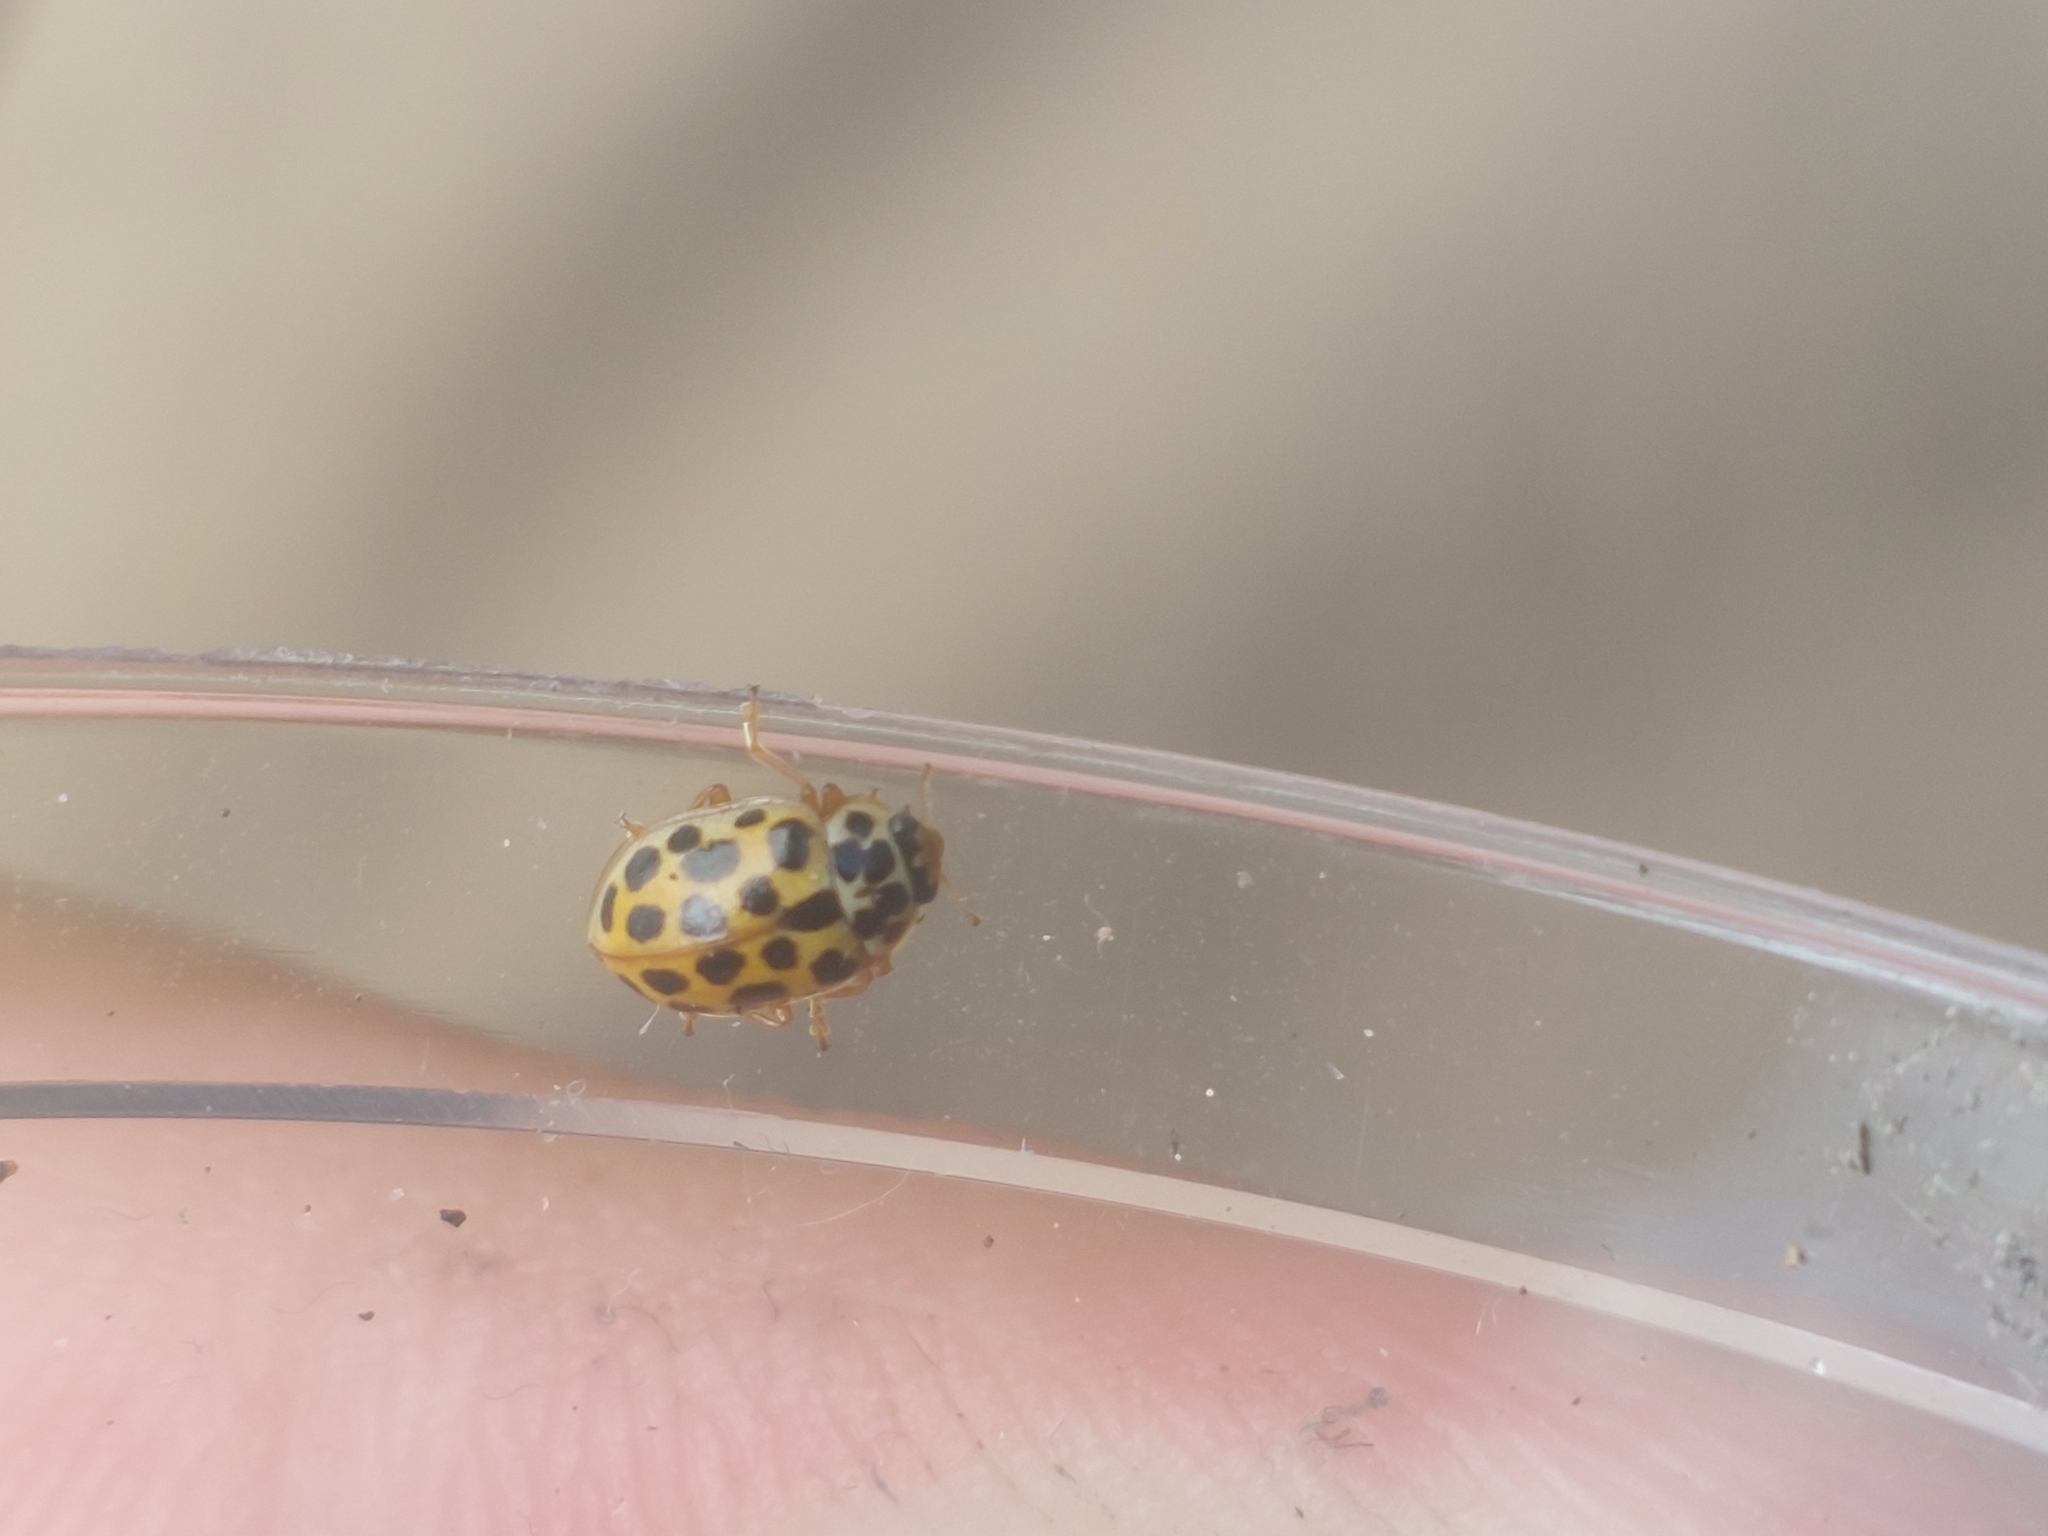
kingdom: Animalia
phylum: Arthropoda
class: Insecta
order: Coleoptera
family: Coccinellidae
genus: Anisosticta
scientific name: Anisosticta novemdecimpunctata
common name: Water ladybird
